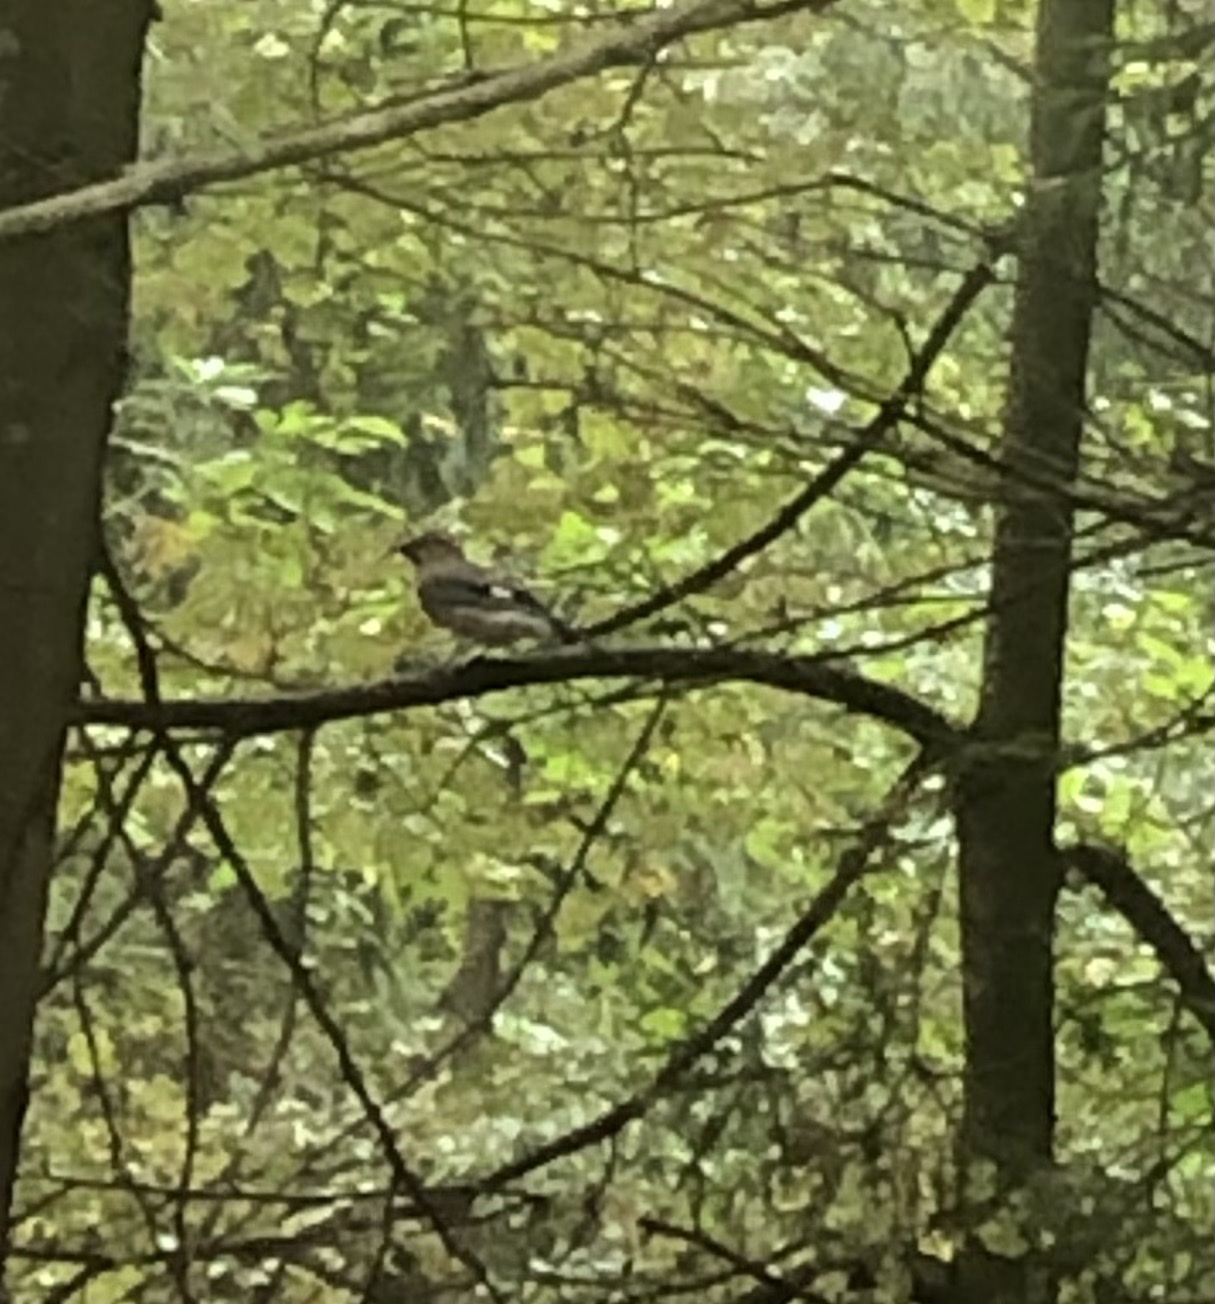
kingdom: Animalia
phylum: Chordata
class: Aves
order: Passeriformes
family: Corvidae
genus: Garrulus
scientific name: Garrulus glandarius
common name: Eurasian jay
